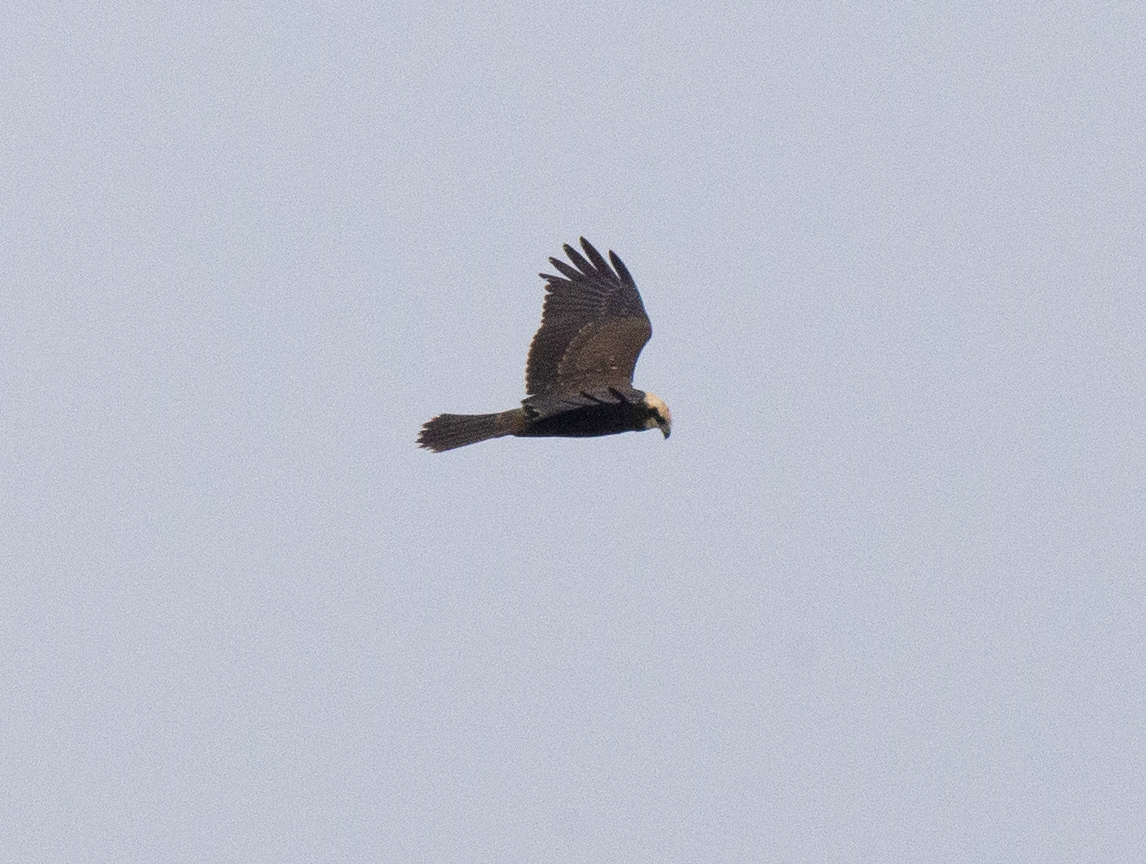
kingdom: Animalia
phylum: Chordata
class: Aves
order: Accipitriformes
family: Accipitridae
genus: Circus
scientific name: Circus aeruginosus
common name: Western marsh harrier
